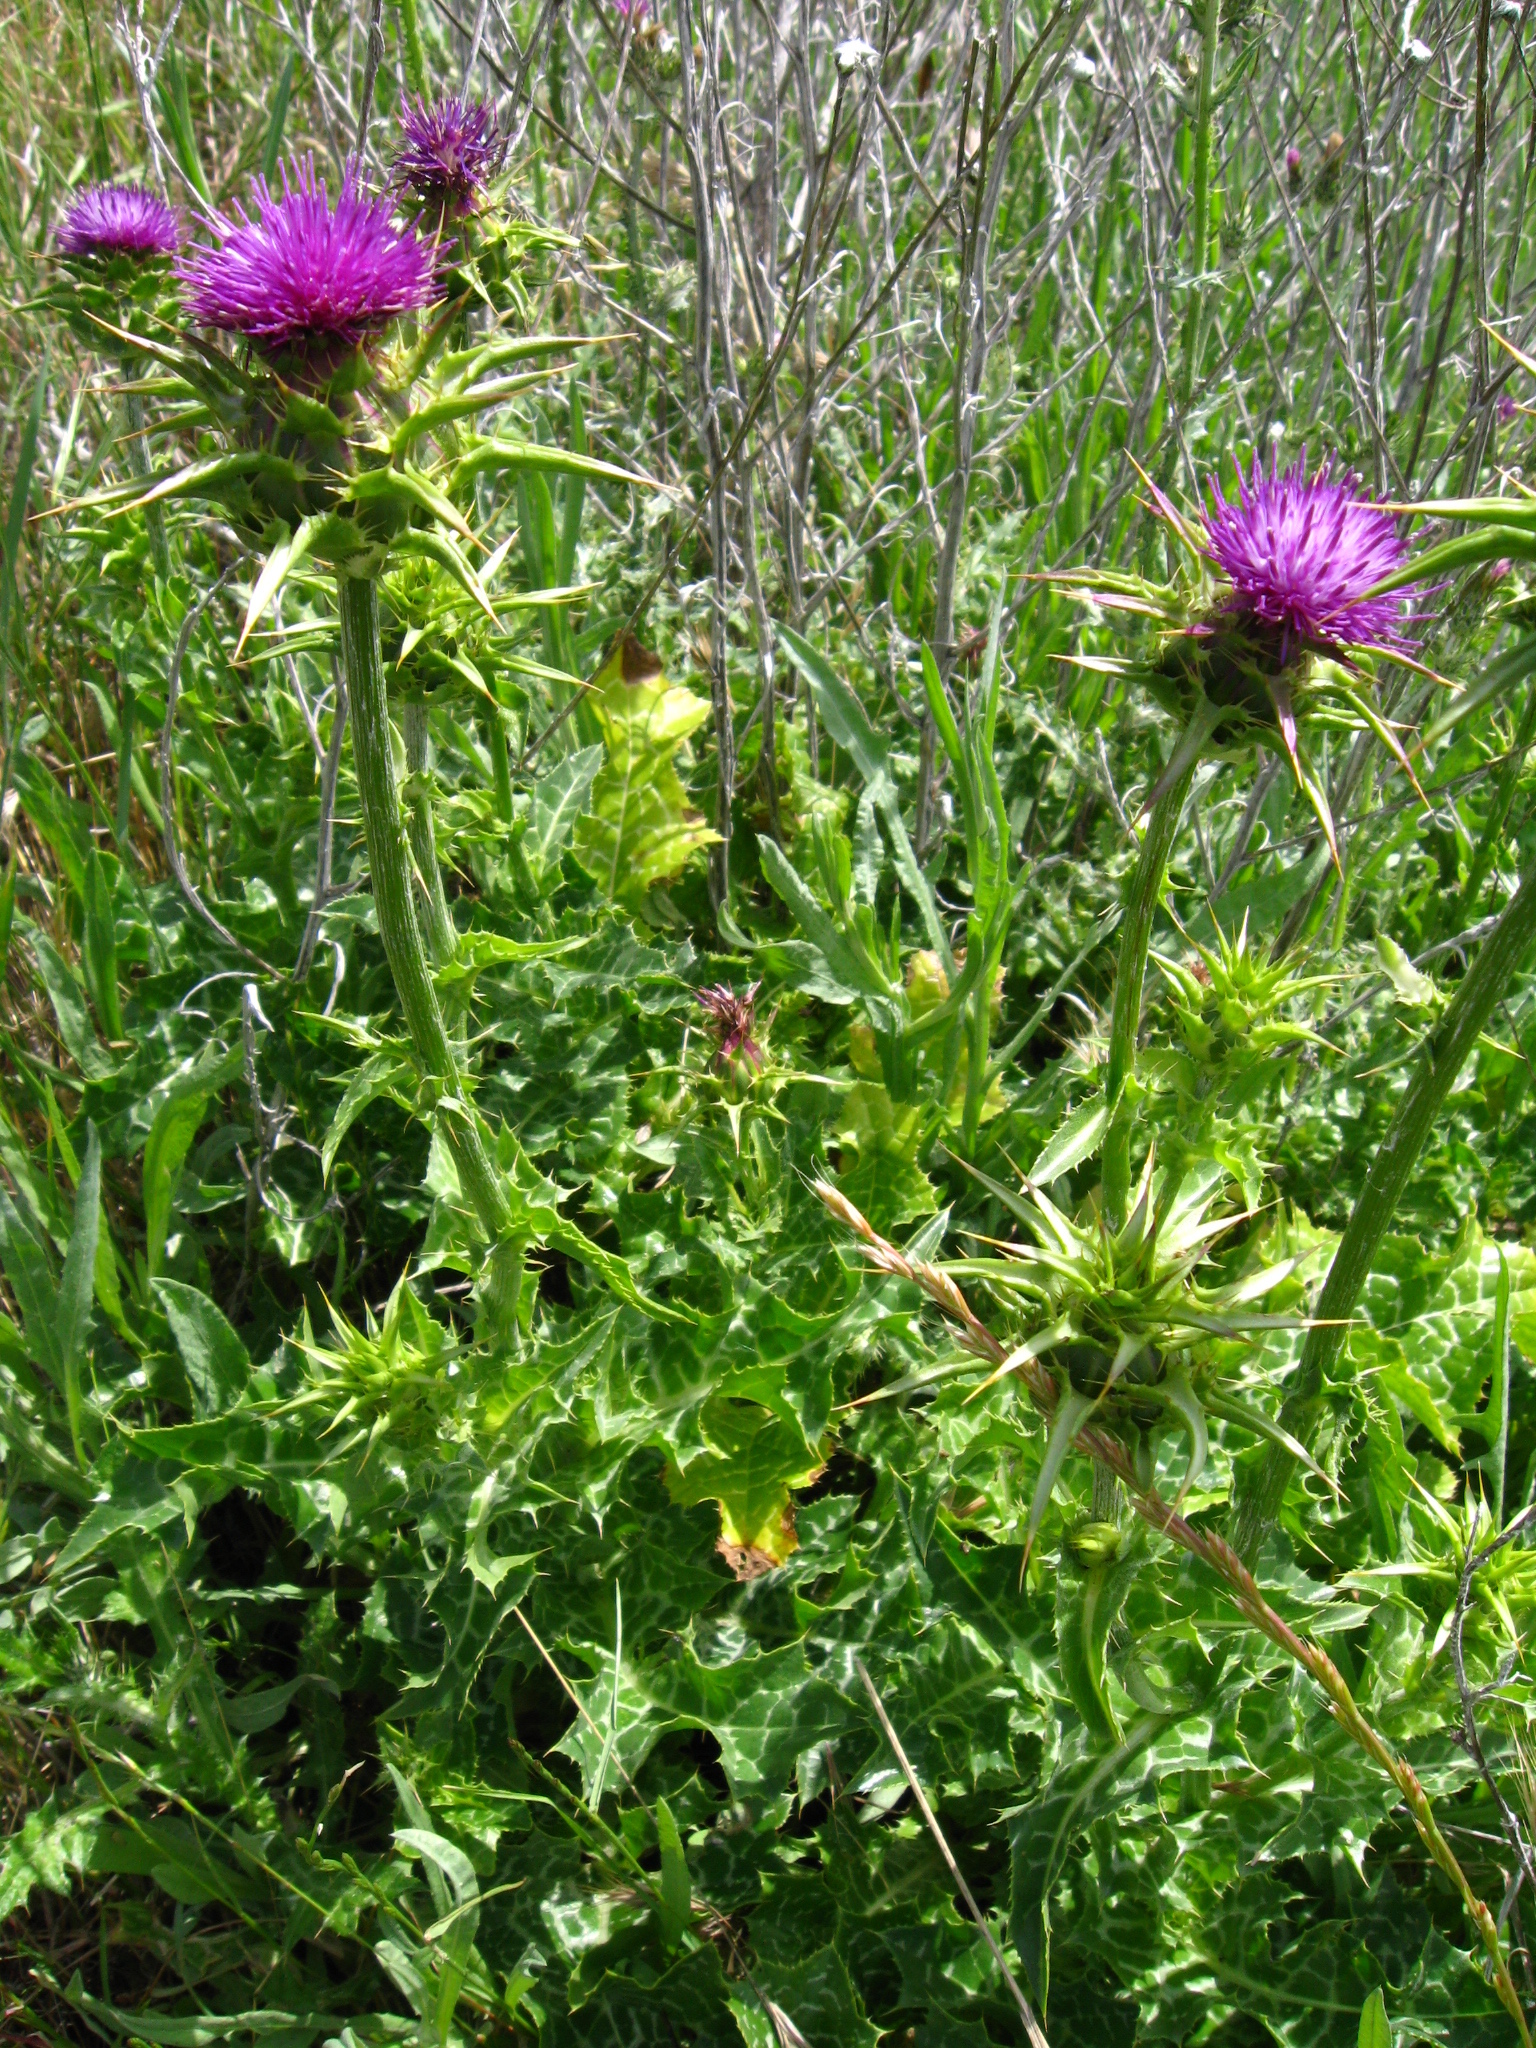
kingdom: Plantae
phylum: Tracheophyta
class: Magnoliopsida
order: Asterales
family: Asteraceae
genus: Silybum
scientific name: Silybum marianum
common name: Milk thistle
